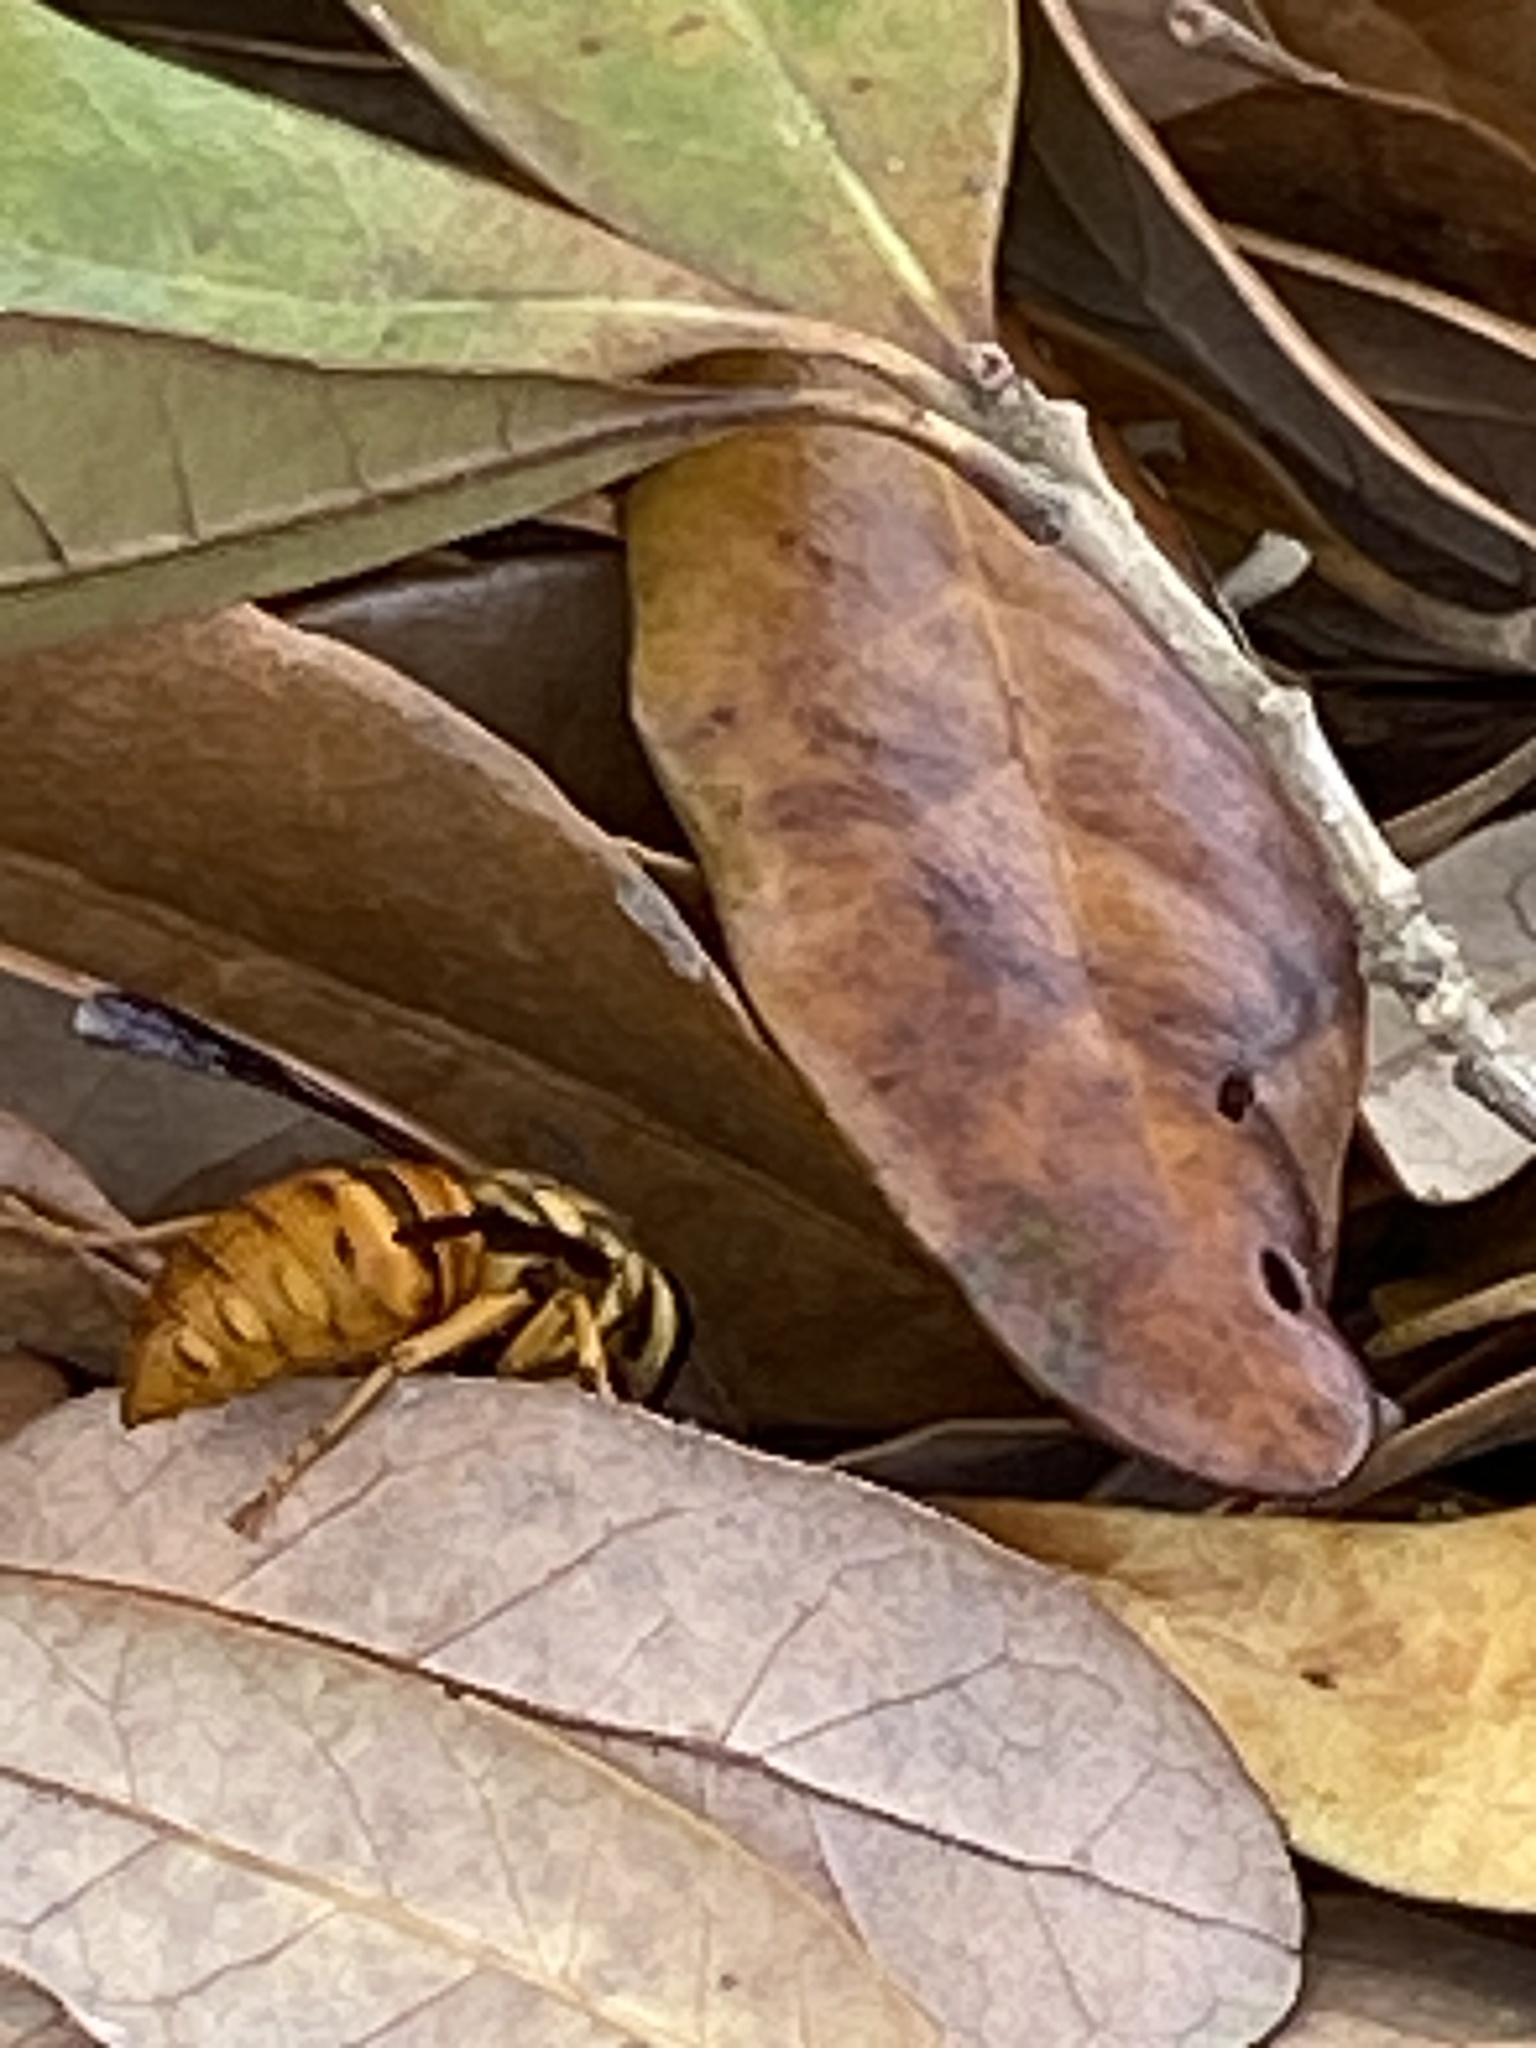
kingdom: Animalia
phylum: Arthropoda
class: Insecta
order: Hymenoptera
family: Vespidae
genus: Vespula
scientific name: Vespula squamosa
